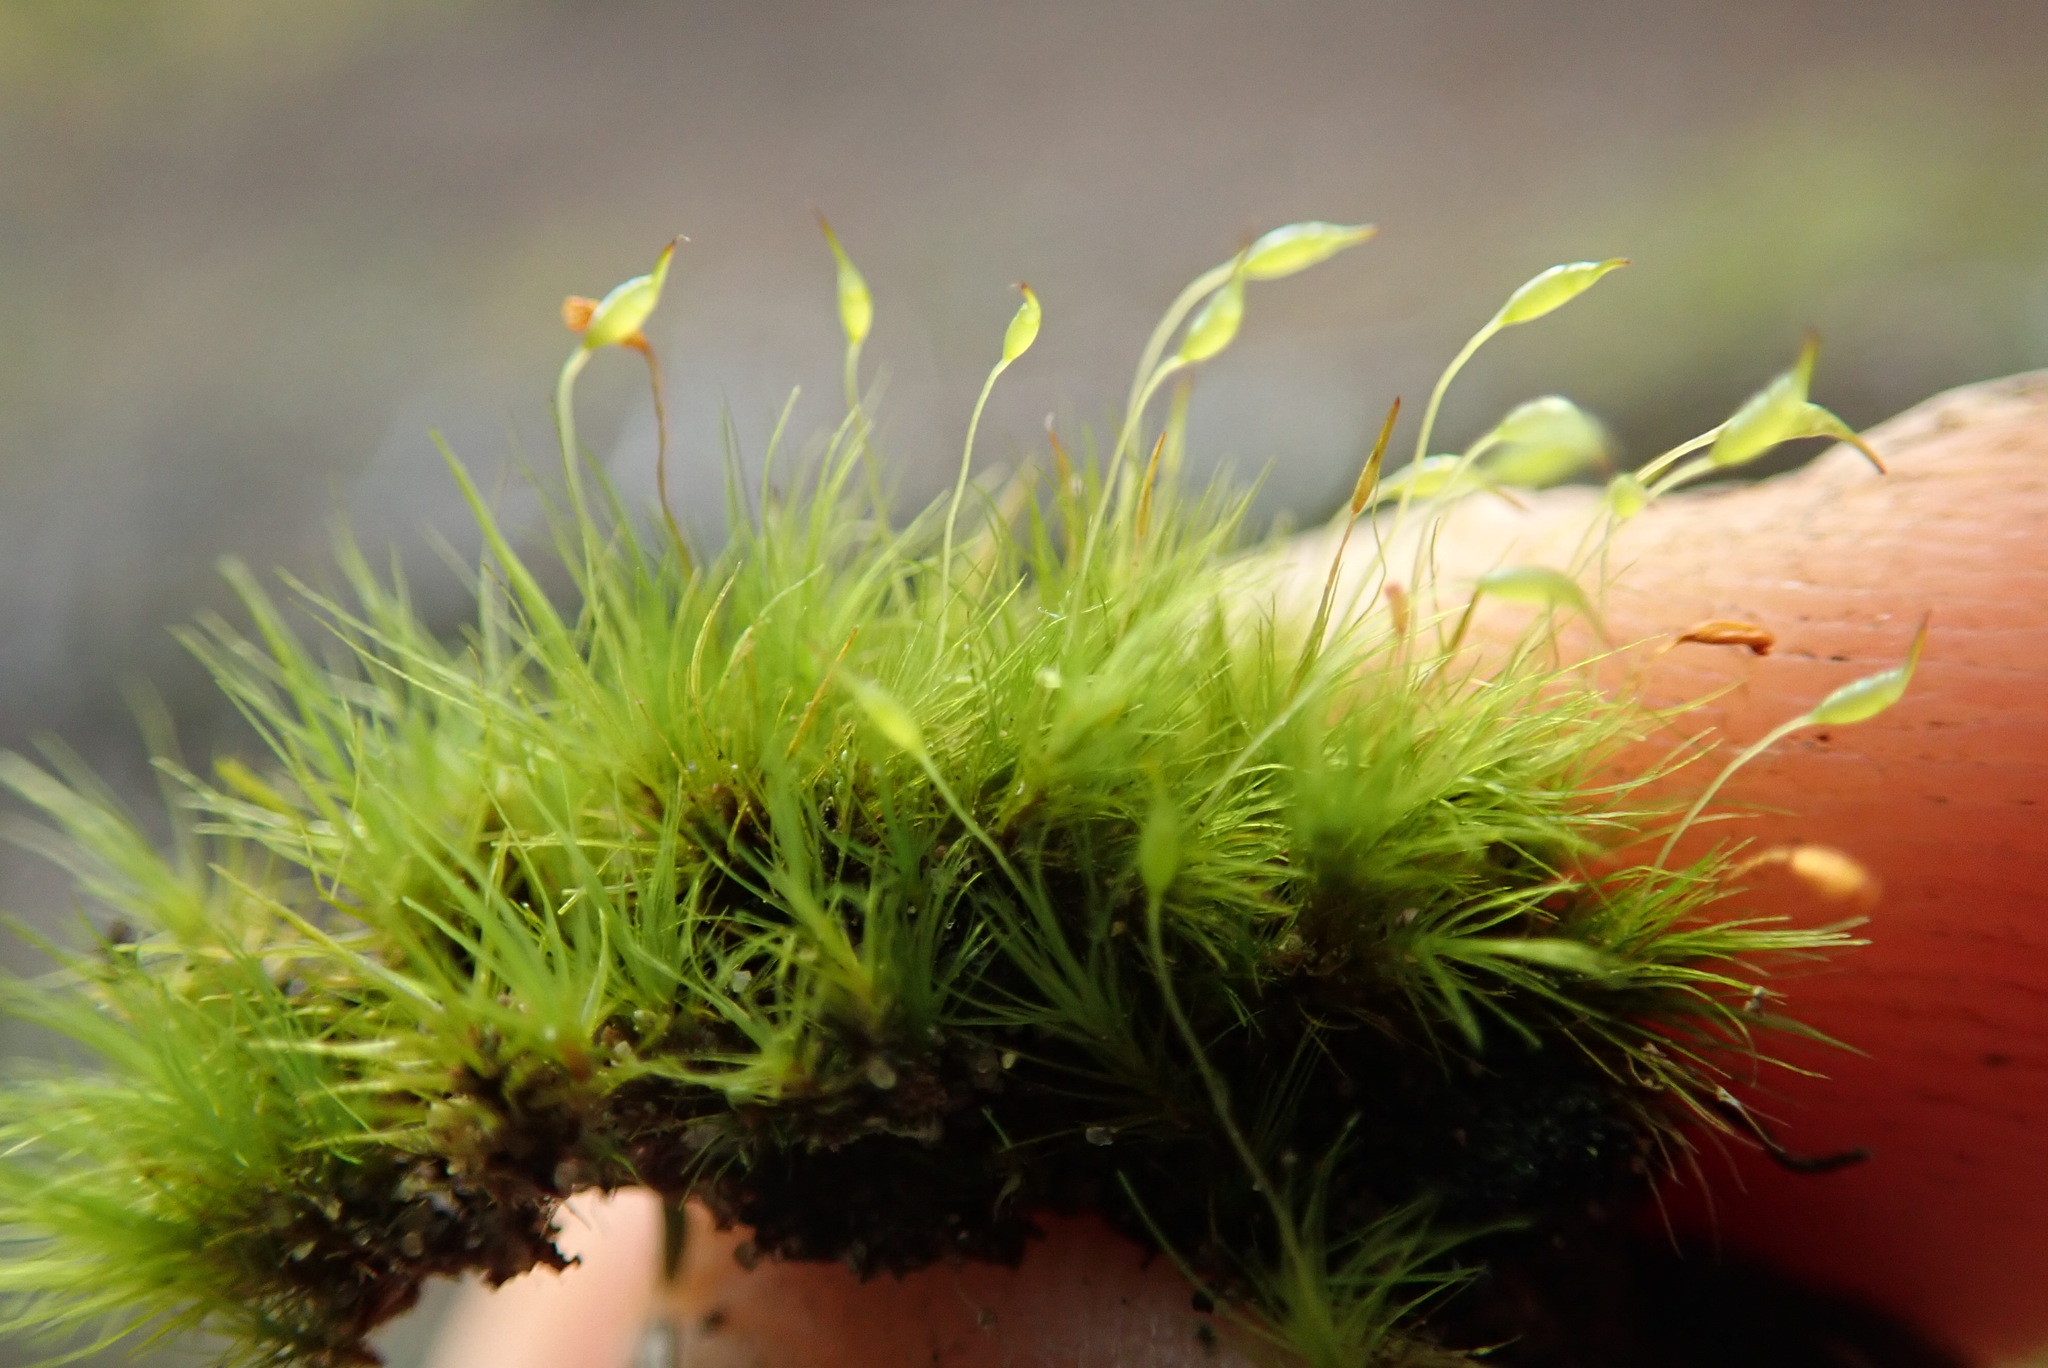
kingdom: Plantae
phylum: Bryophyta
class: Bryopsida
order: Dicranales
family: Dicranellaceae
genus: Dicranella
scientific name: Dicranella heteromalla
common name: Silky forklet moss
